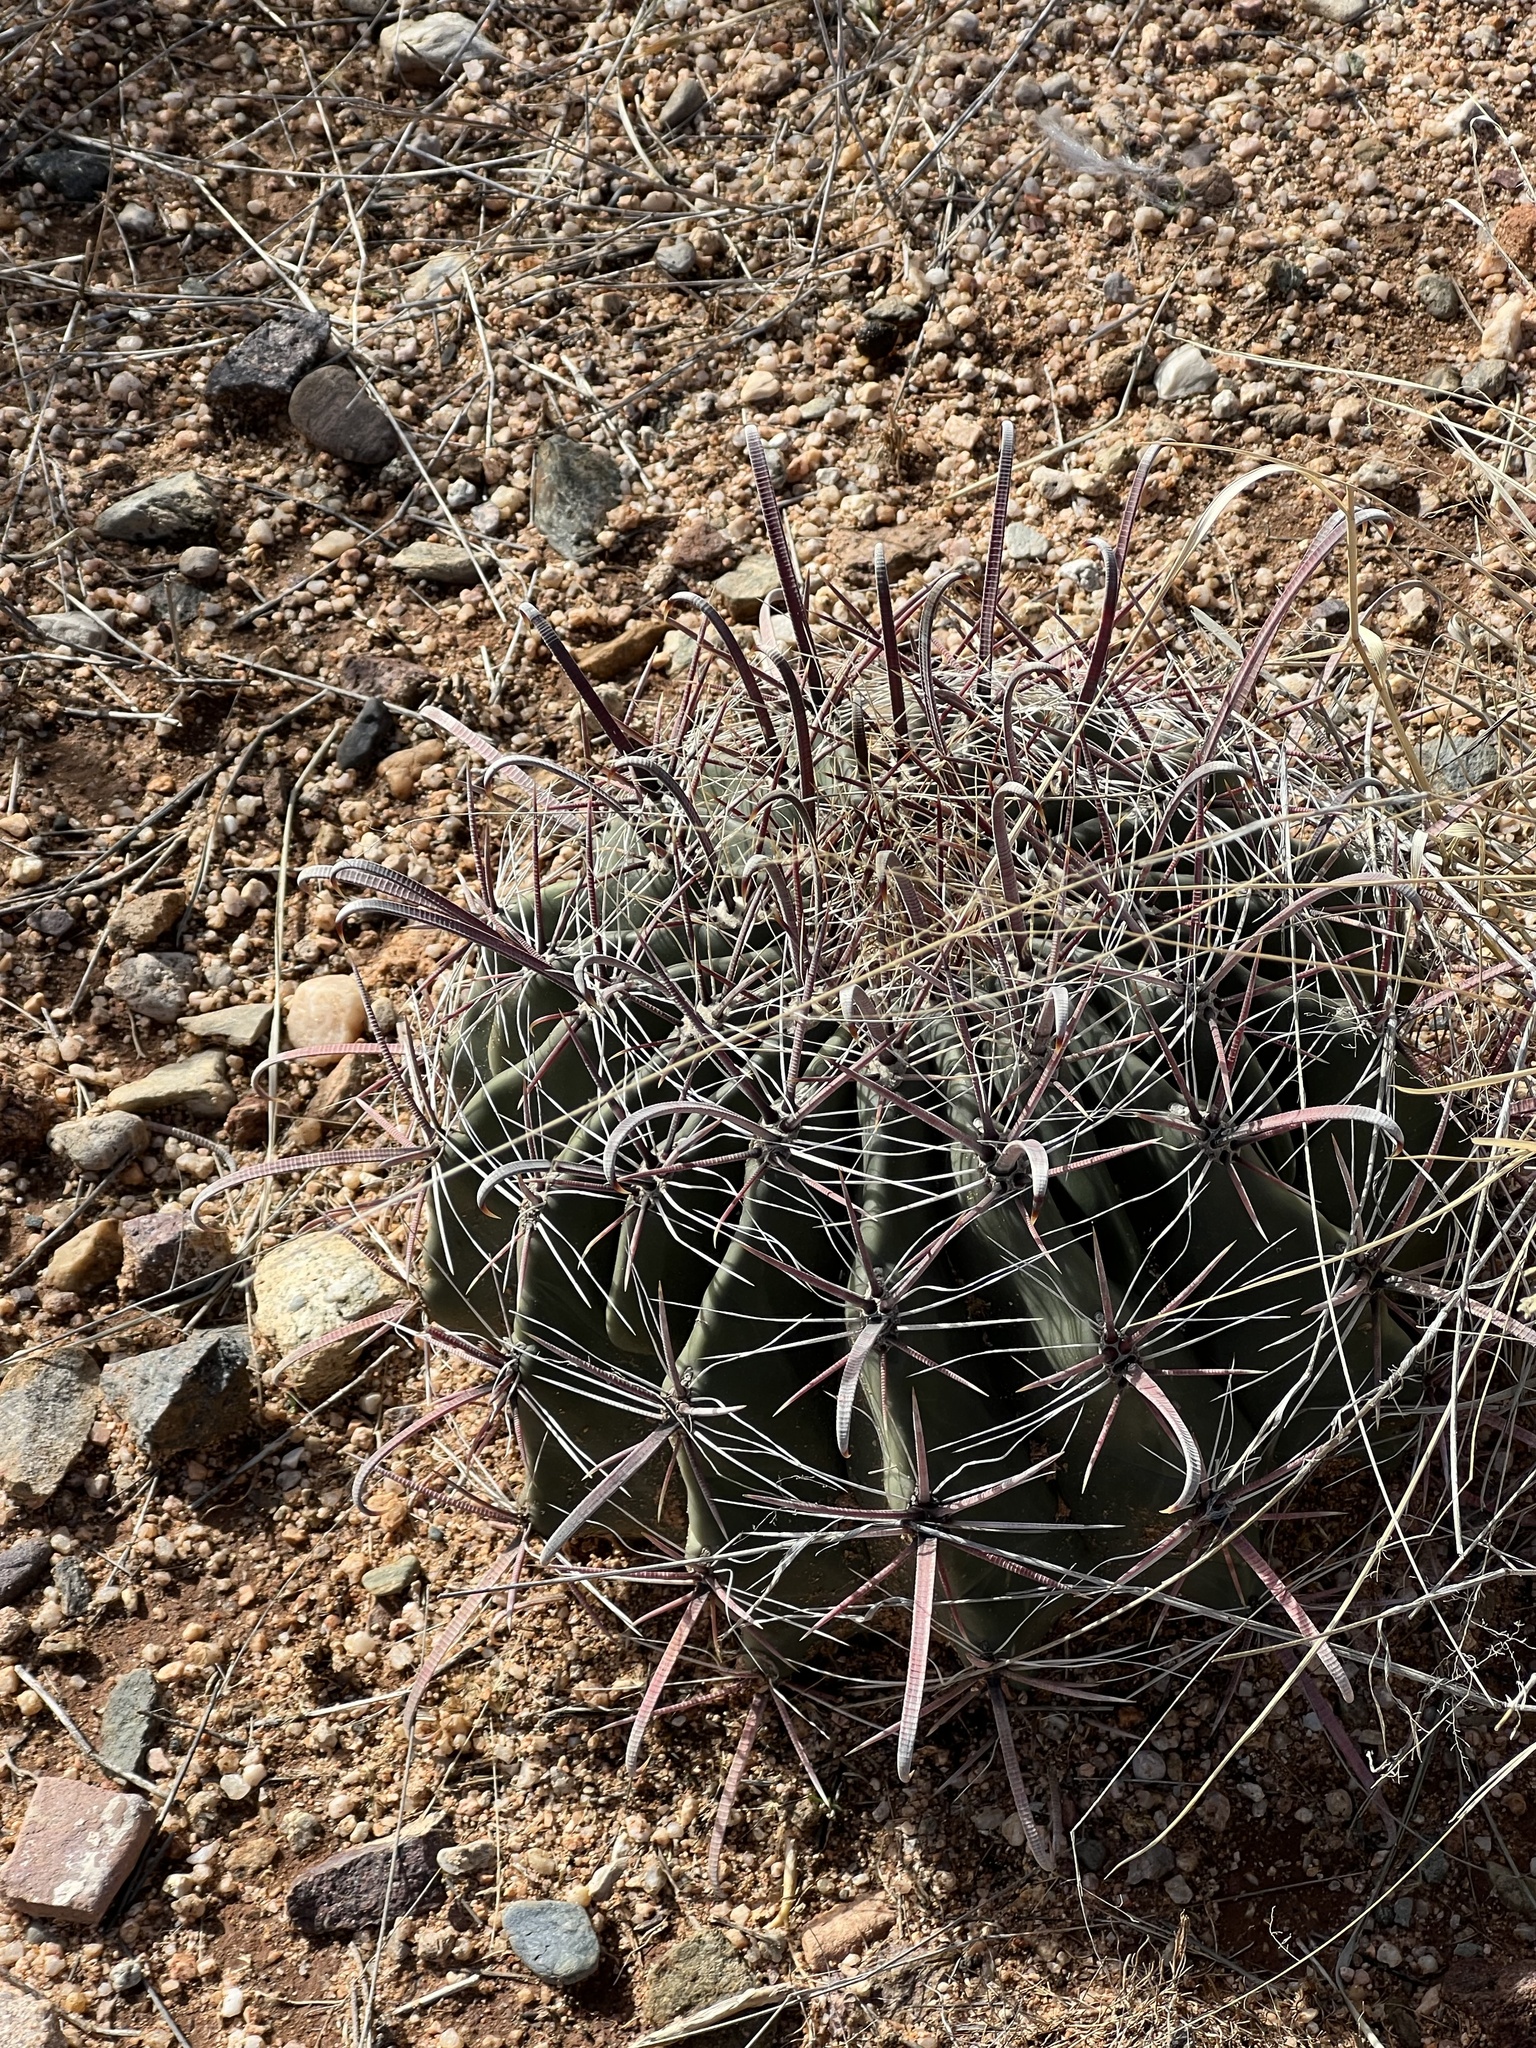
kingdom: Plantae
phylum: Tracheophyta
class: Magnoliopsida
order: Caryophyllales
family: Cactaceae
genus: Ferocactus
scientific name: Ferocactus wislizeni
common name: Candy barrel cactus
